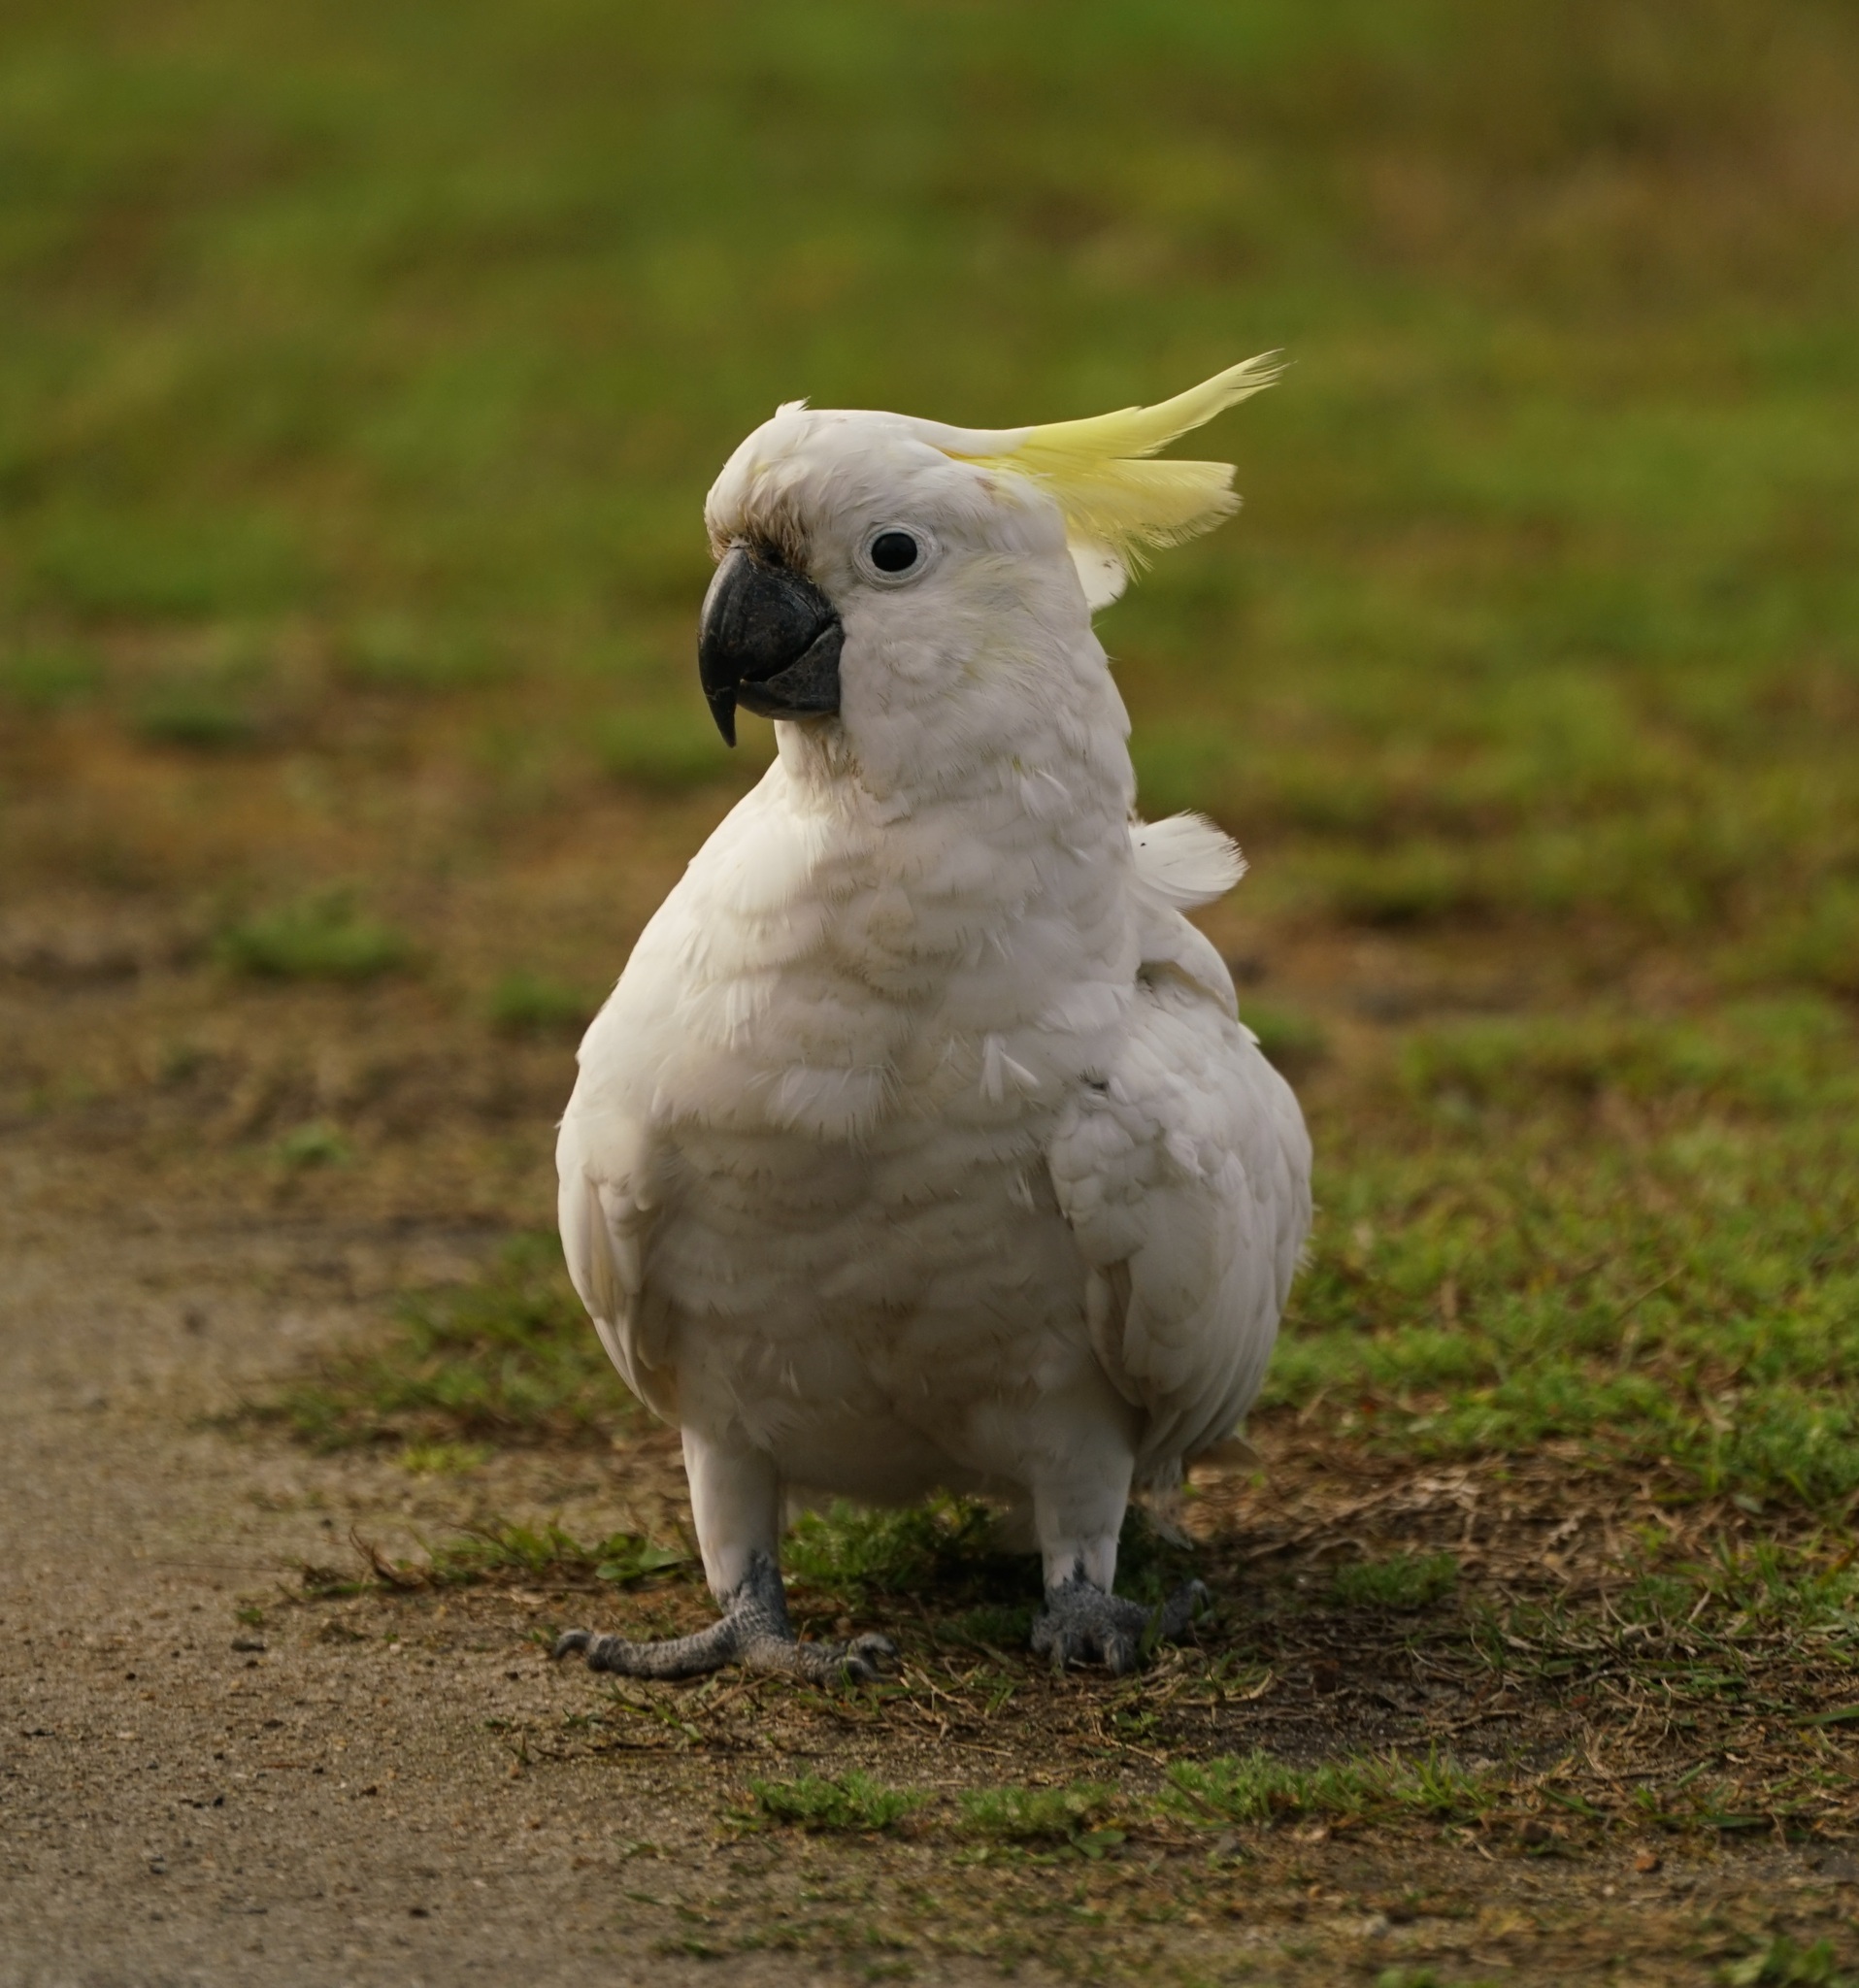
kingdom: Animalia
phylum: Chordata
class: Aves
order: Psittaciformes
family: Psittacidae
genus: Cacatua
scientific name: Cacatua galerita
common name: Sulphur-crested cockatoo
